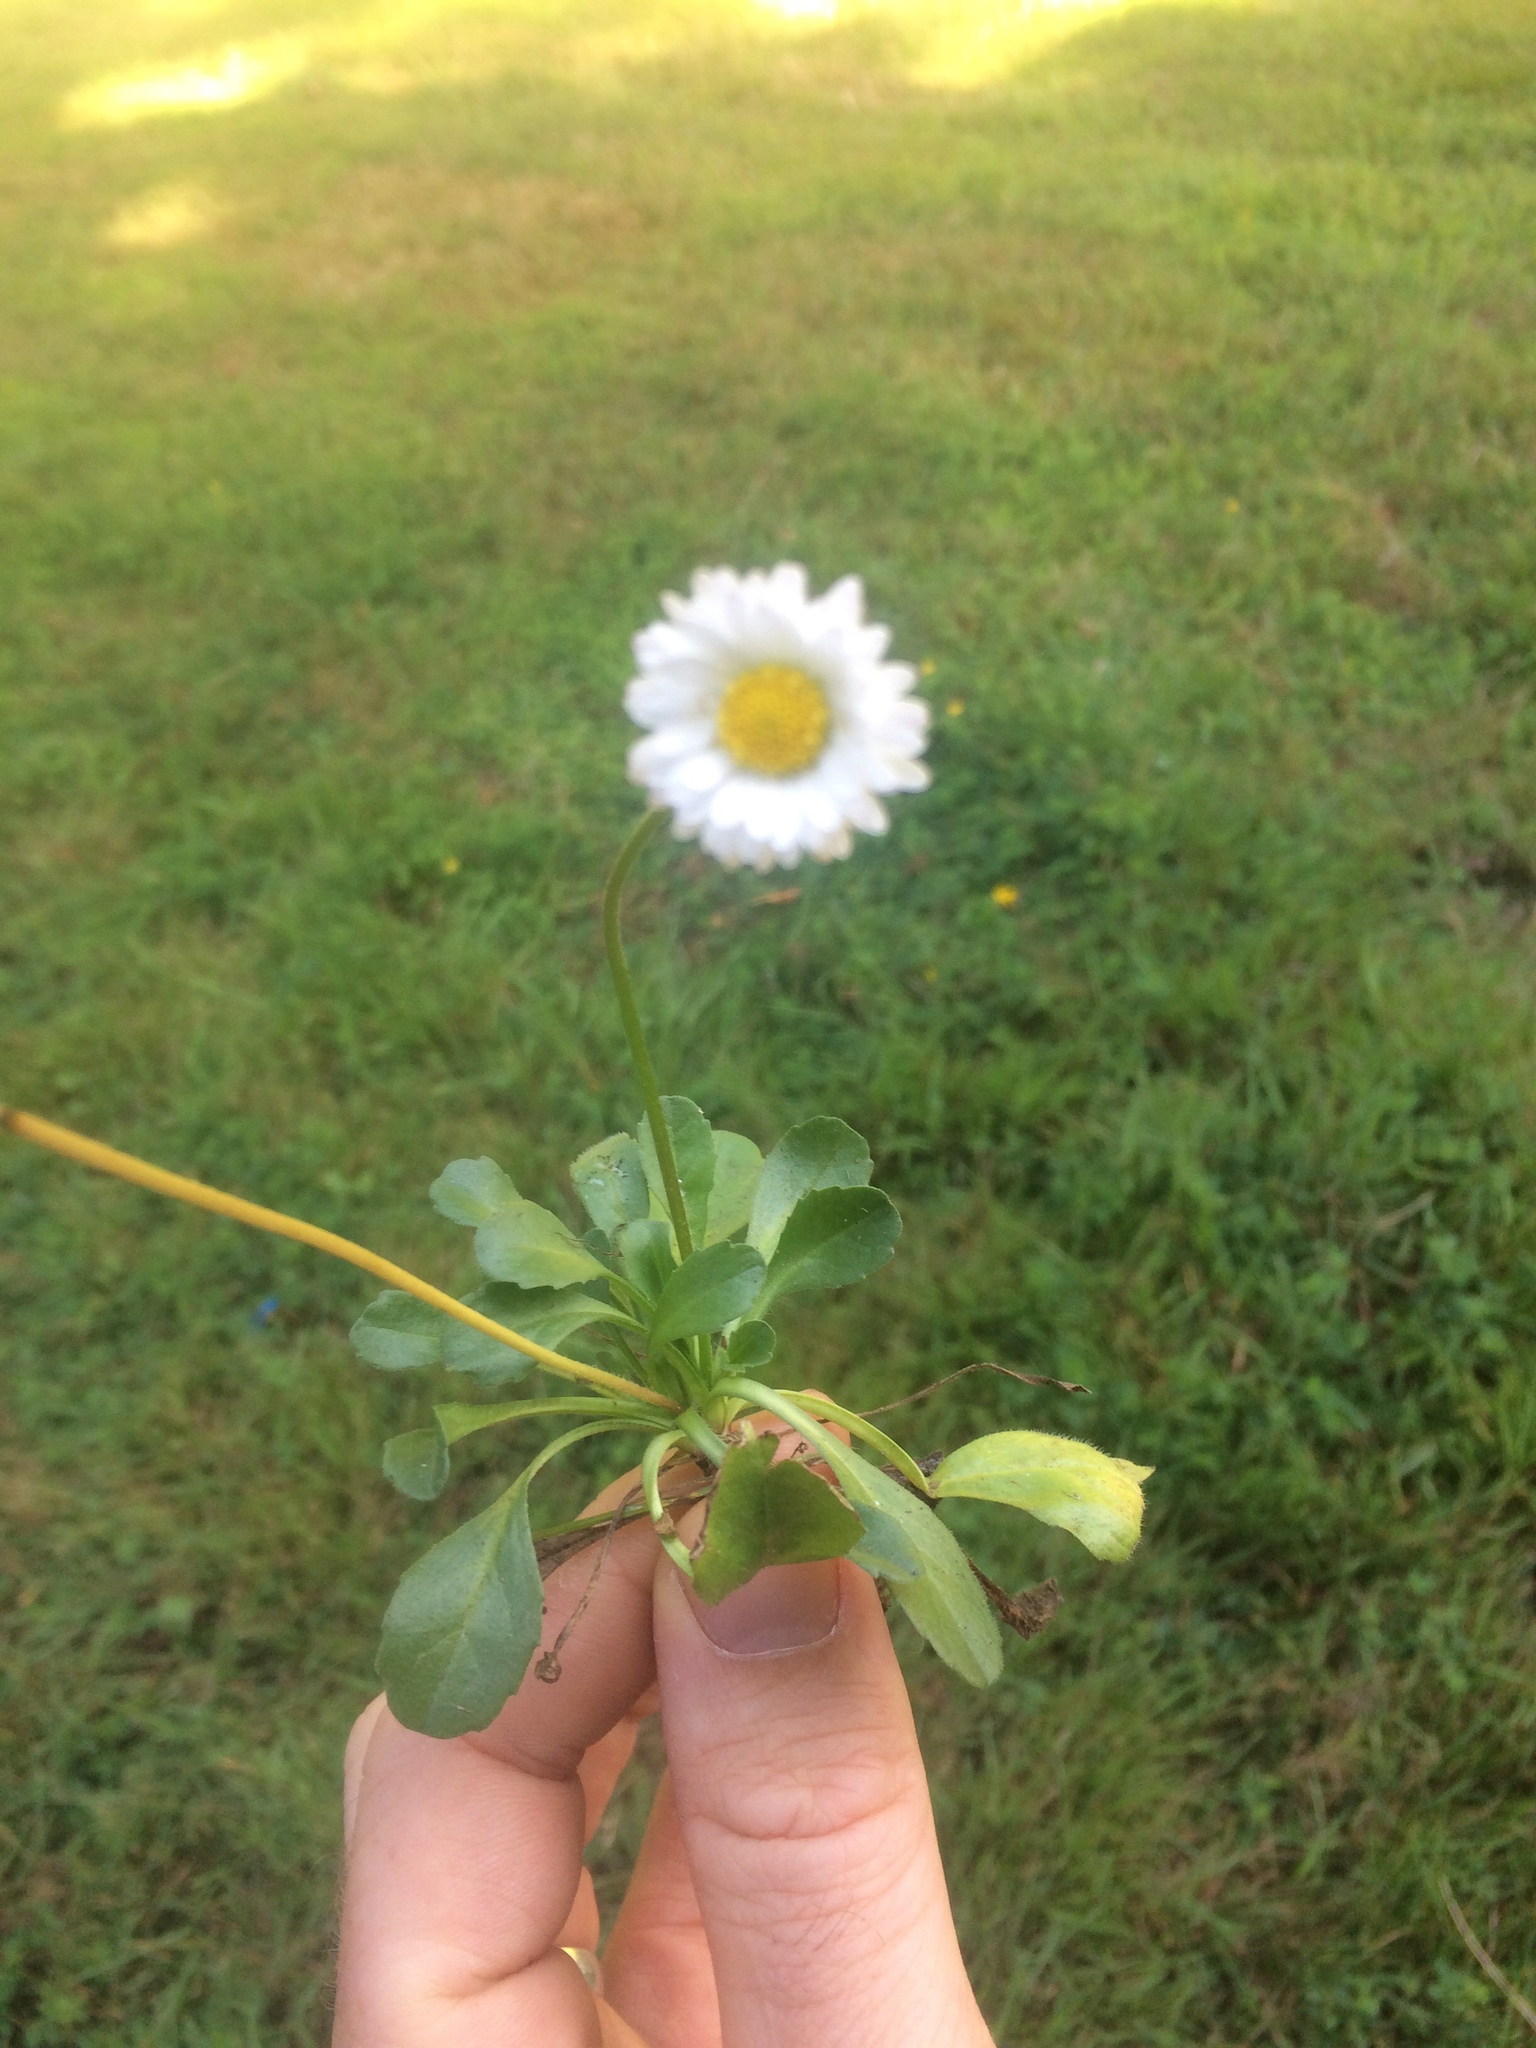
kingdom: Plantae
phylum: Tracheophyta
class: Magnoliopsida
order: Asterales
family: Asteraceae
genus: Bellis
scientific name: Bellis perennis
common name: Lawndaisy
